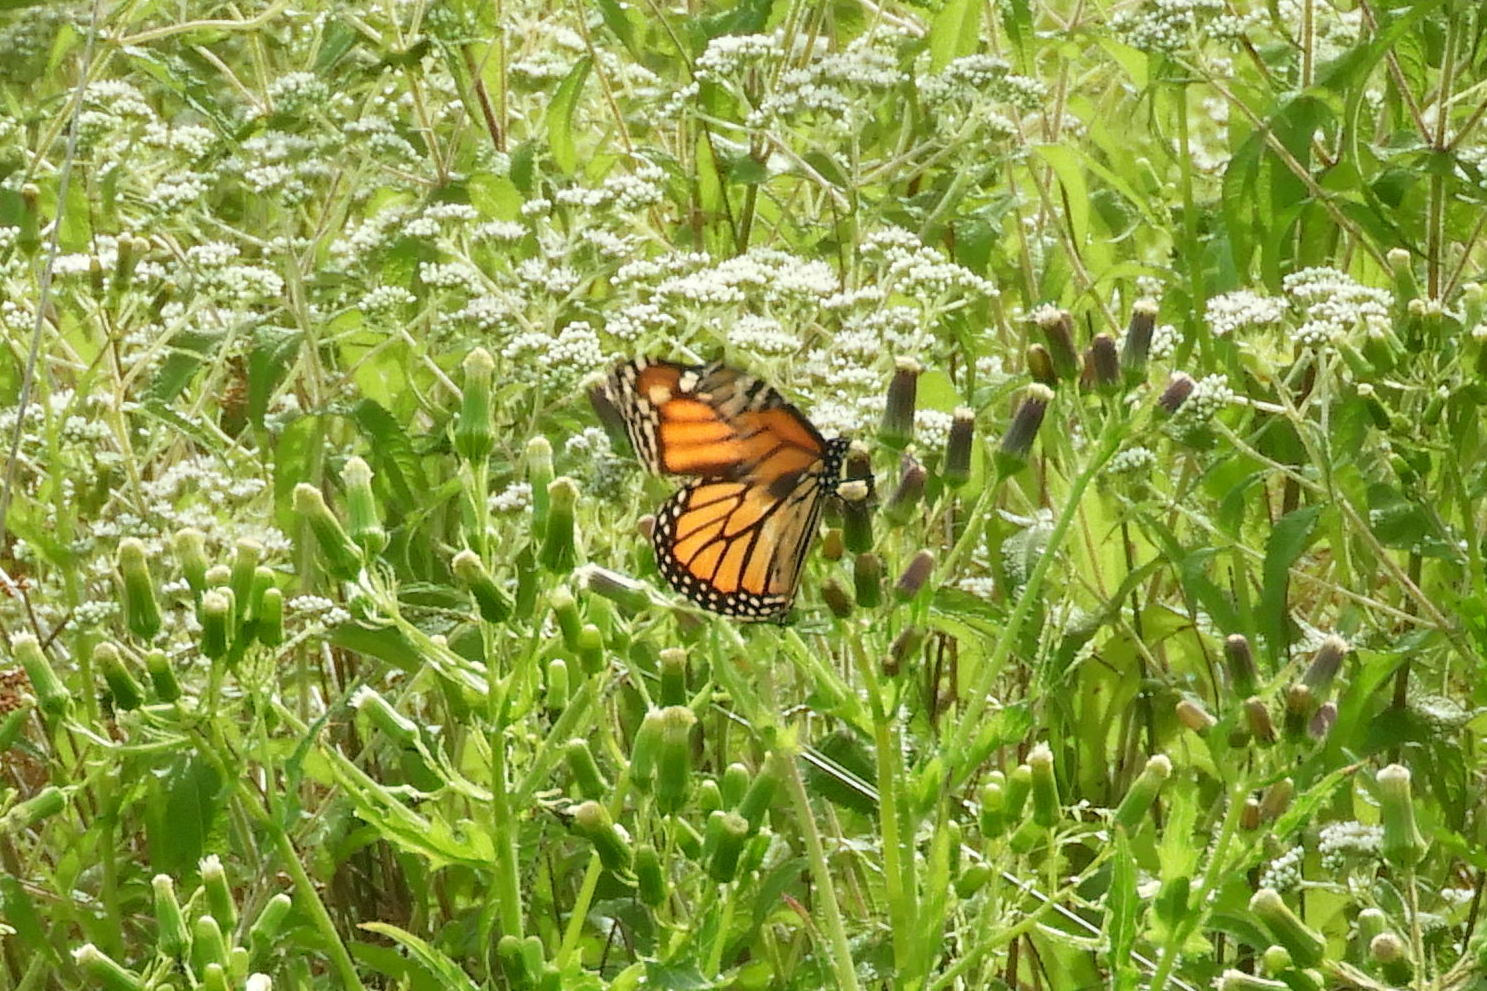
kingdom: Animalia
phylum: Arthropoda
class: Insecta
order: Lepidoptera
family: Nymphalidae
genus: Danaus
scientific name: Danaus plexippus
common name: Monarch
